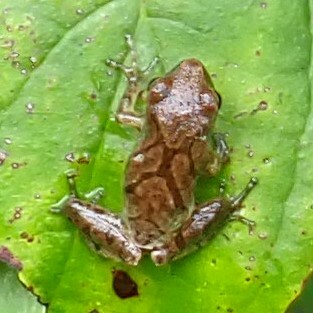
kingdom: Animalia
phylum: Chordata
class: Amphibia
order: Anura
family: Hylidae
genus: Pseudacris
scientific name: Pseudacris crucifer
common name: Spring peeper
